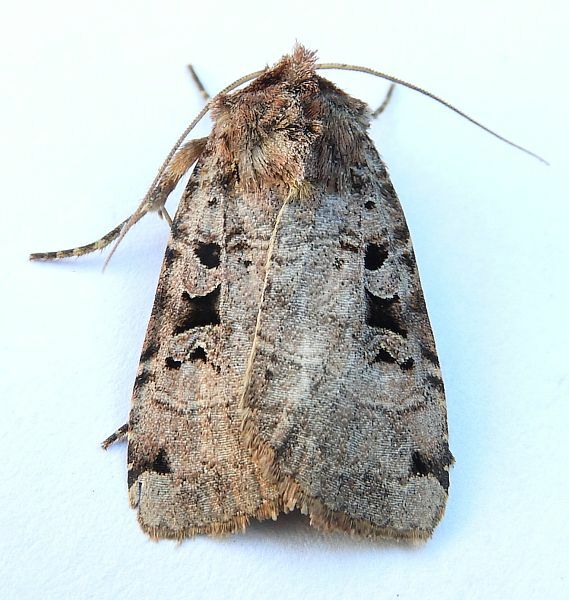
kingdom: Animalia
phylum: Arthropoda
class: Insecta
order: Lepidoptera
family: Noctuidae
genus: Xestia
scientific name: Xestia normaniana
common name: Norman's dart moth
